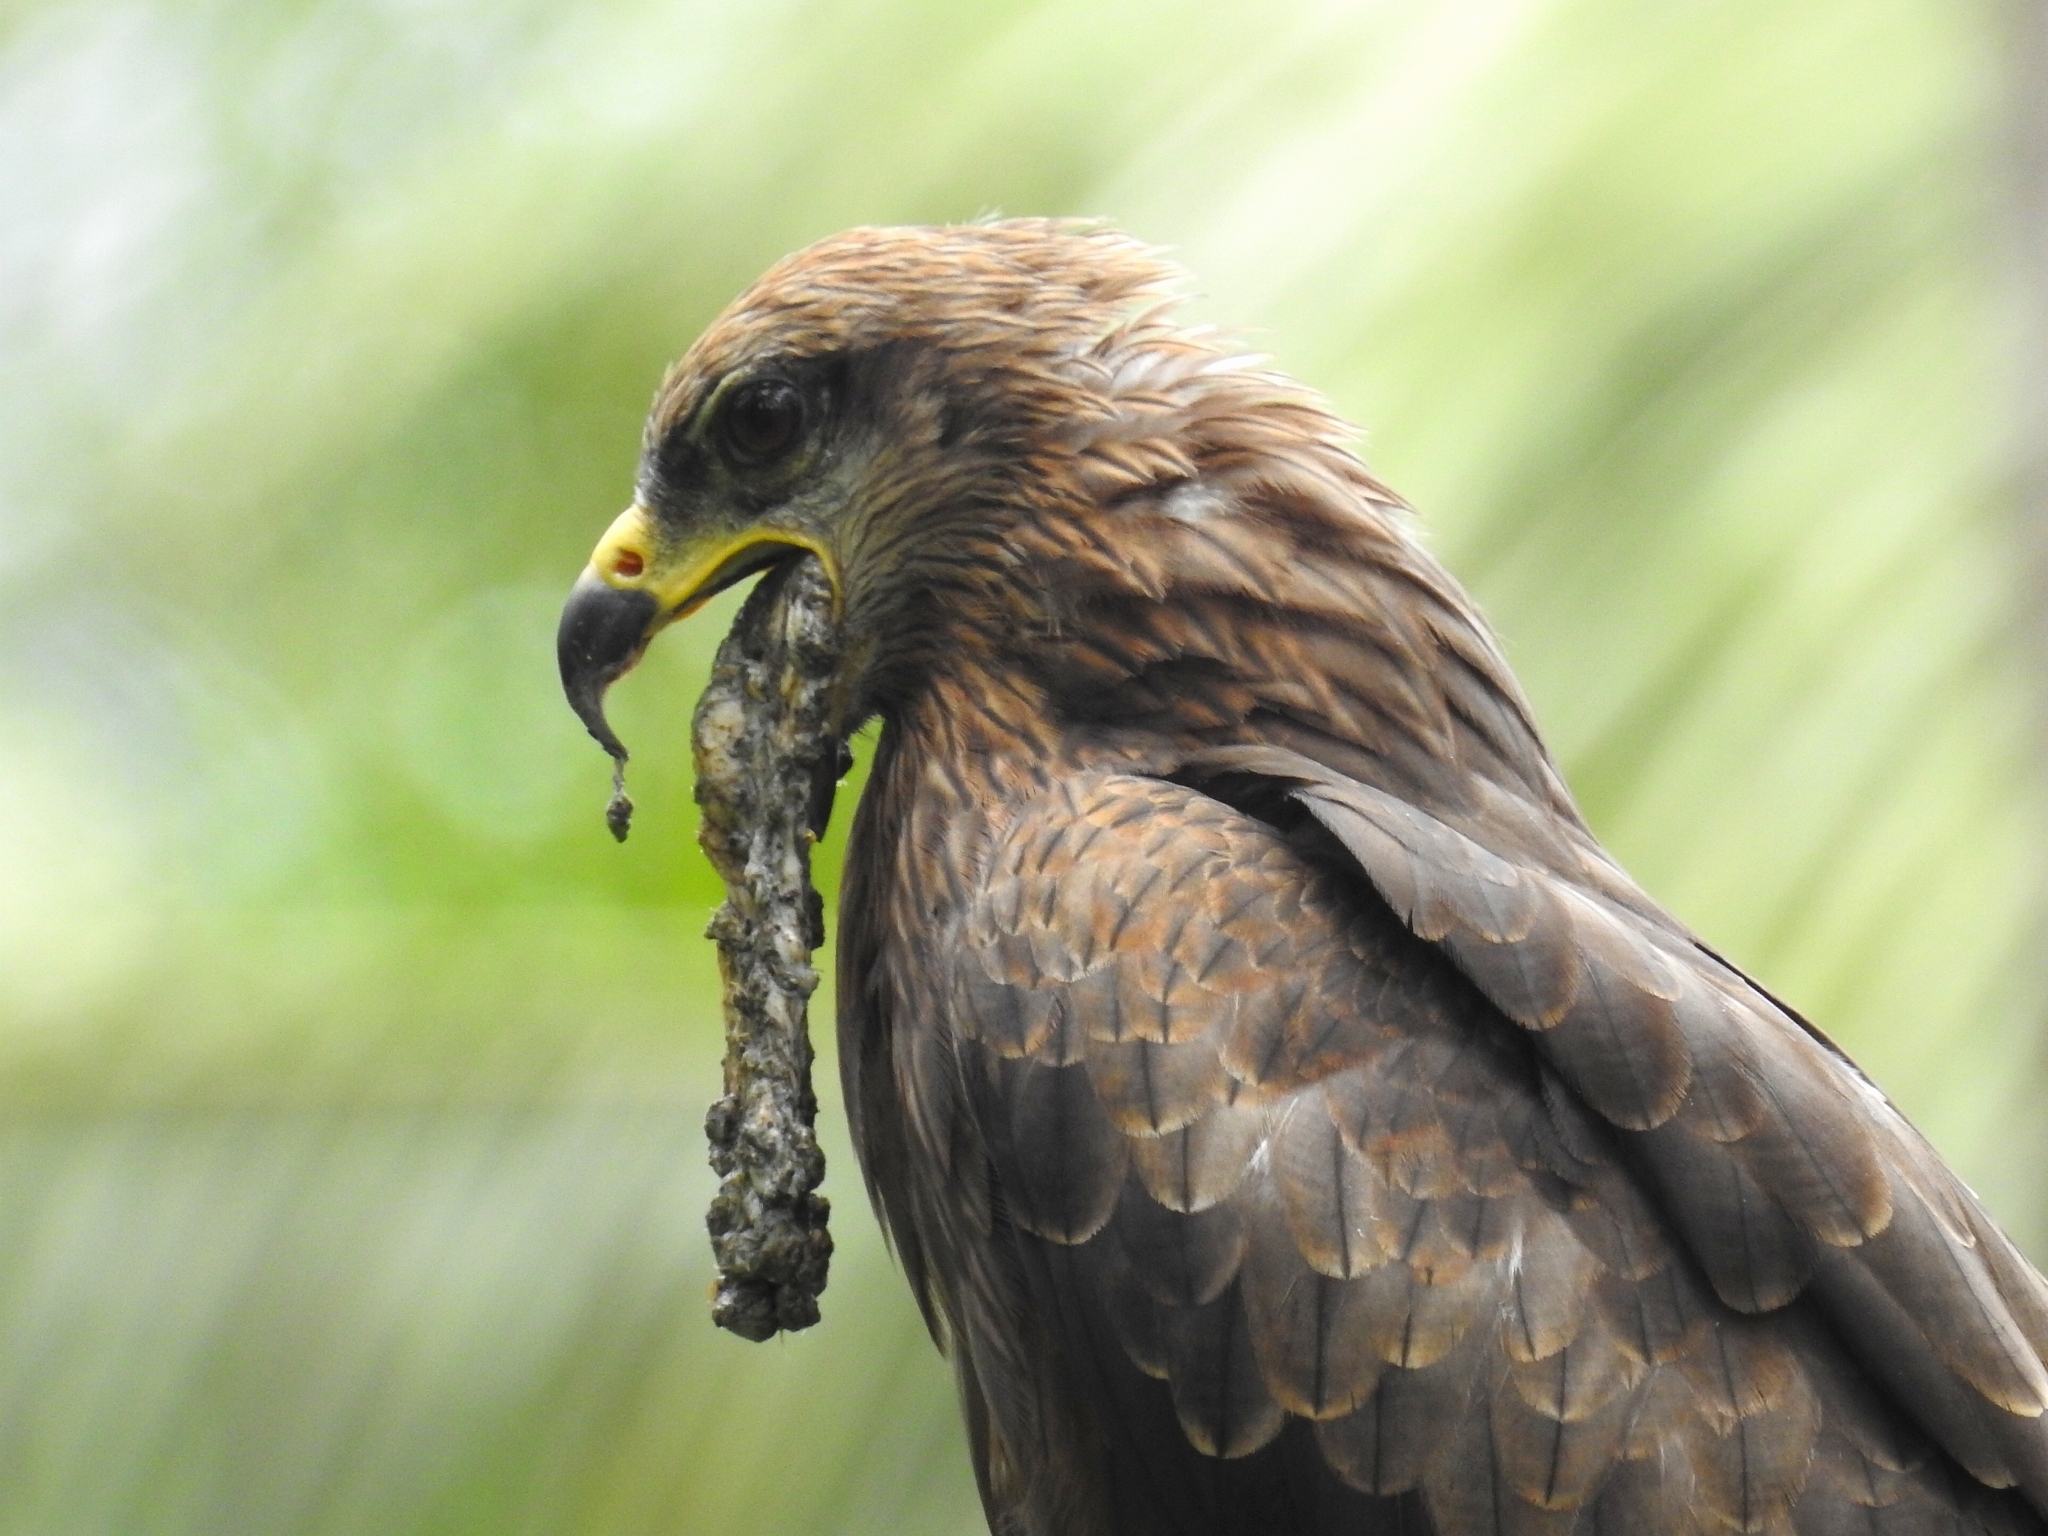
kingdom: Animalia
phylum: Chordata
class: Aves
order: Accipitriformes
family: Accipitridae
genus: Milvus
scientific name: Milvus migrans
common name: Black kite
